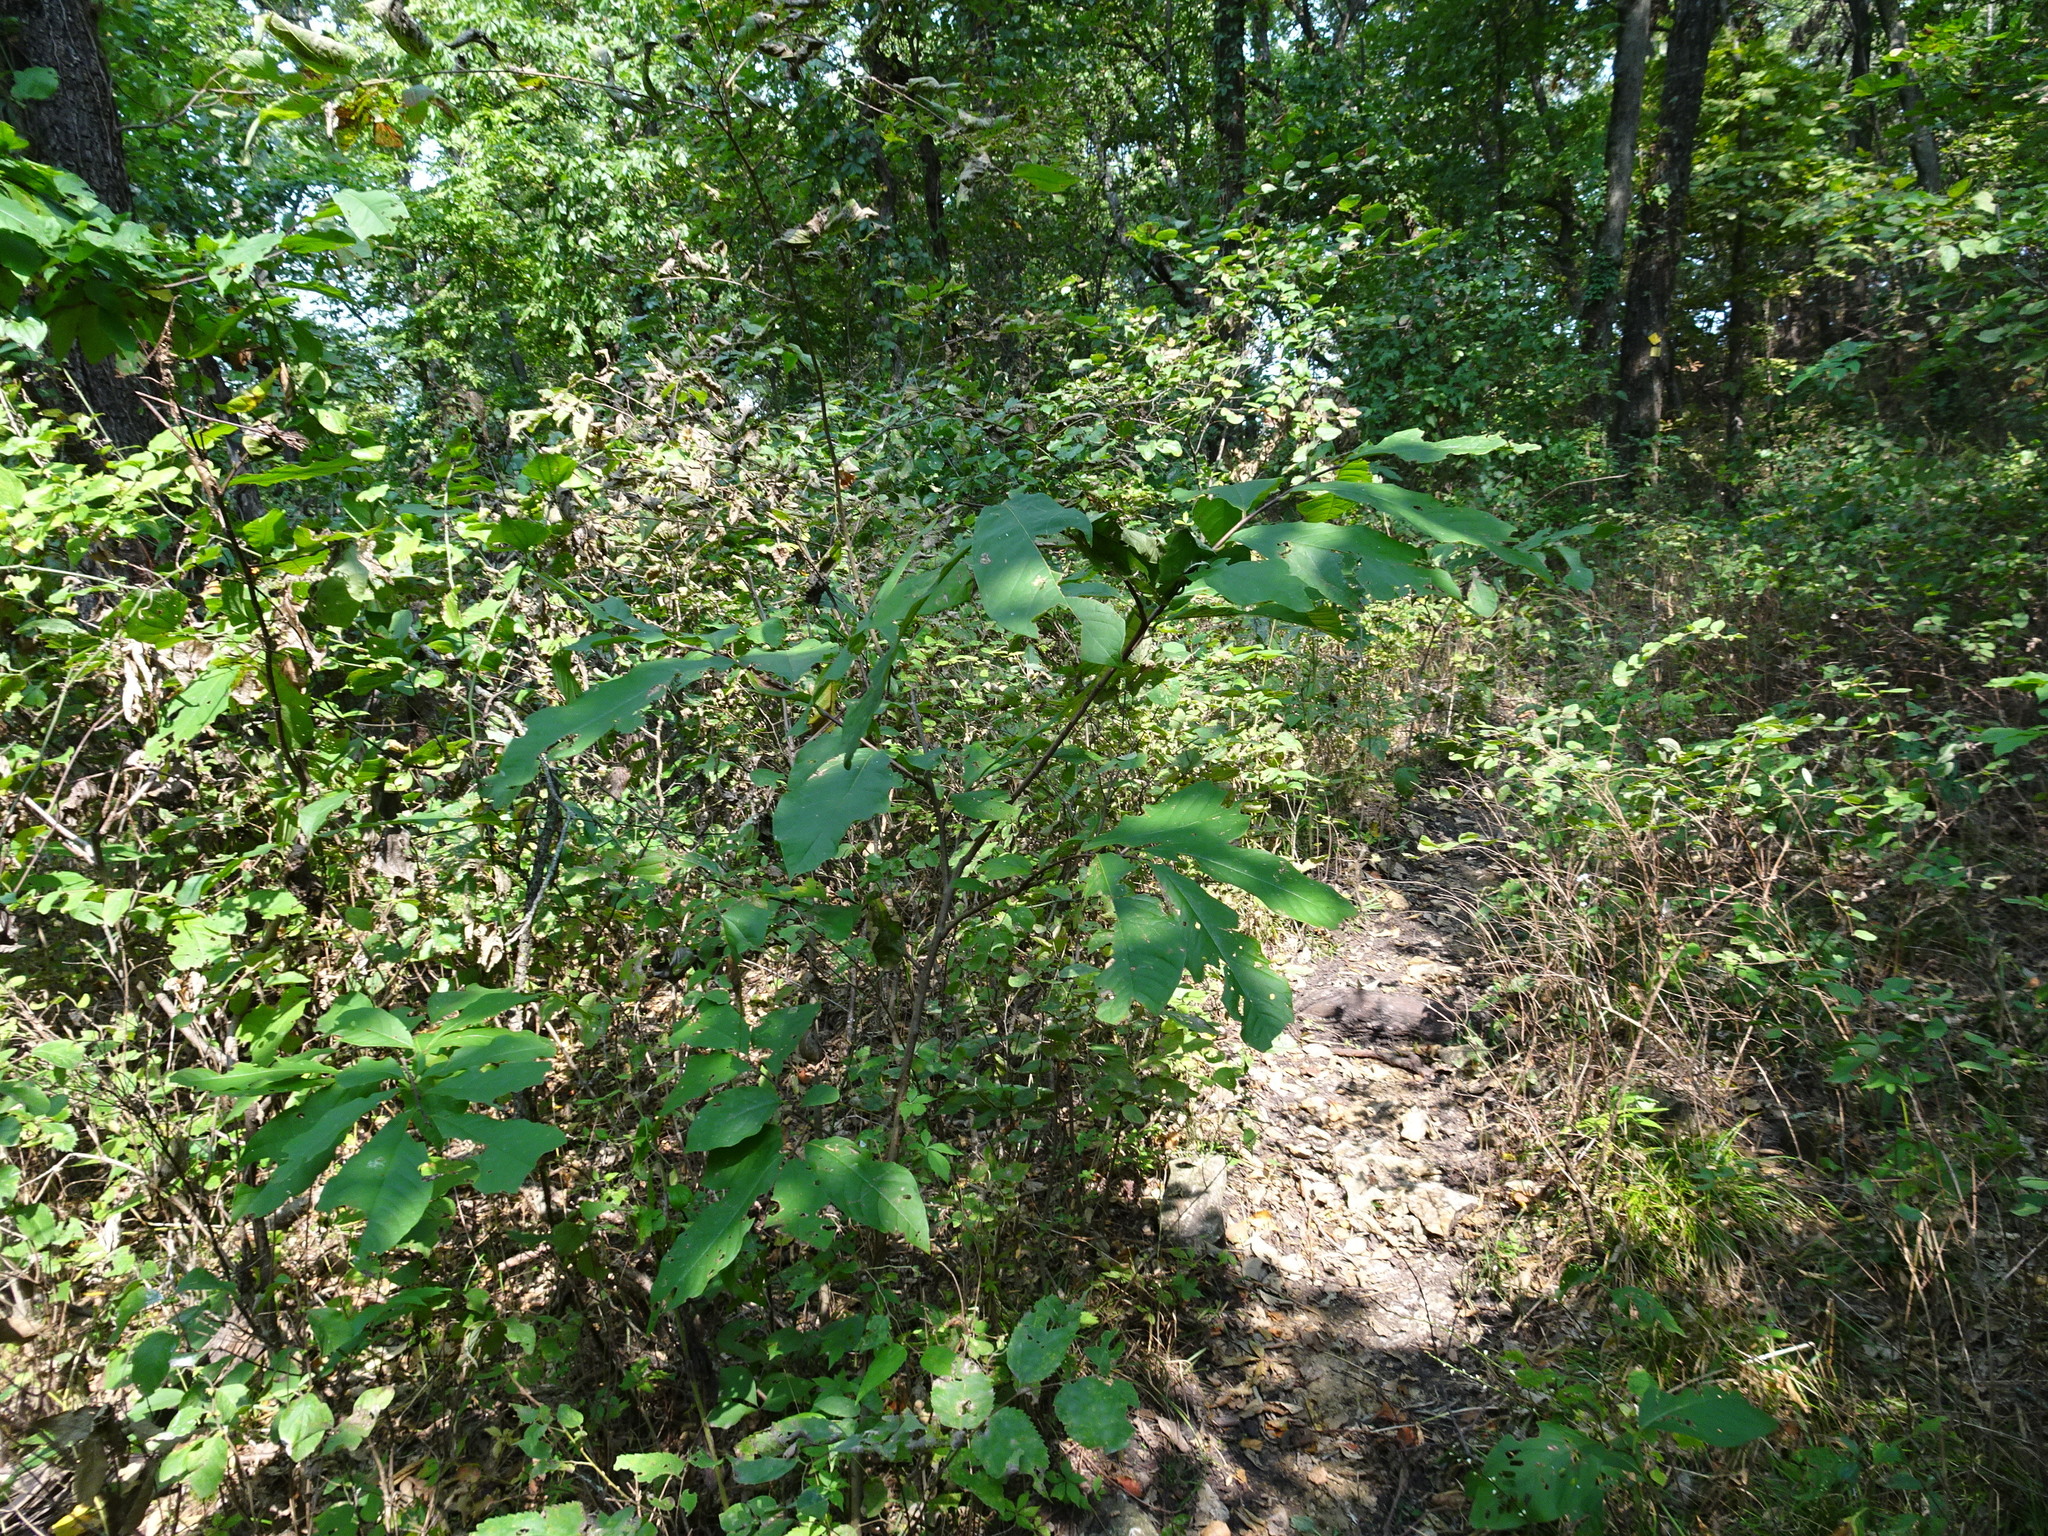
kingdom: Plantae
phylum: Tracheophyta
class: Magnoliopsida
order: Magnoliales
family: Annonaceae
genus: Asimina
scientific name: Asimina triloba
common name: Dog-banana
